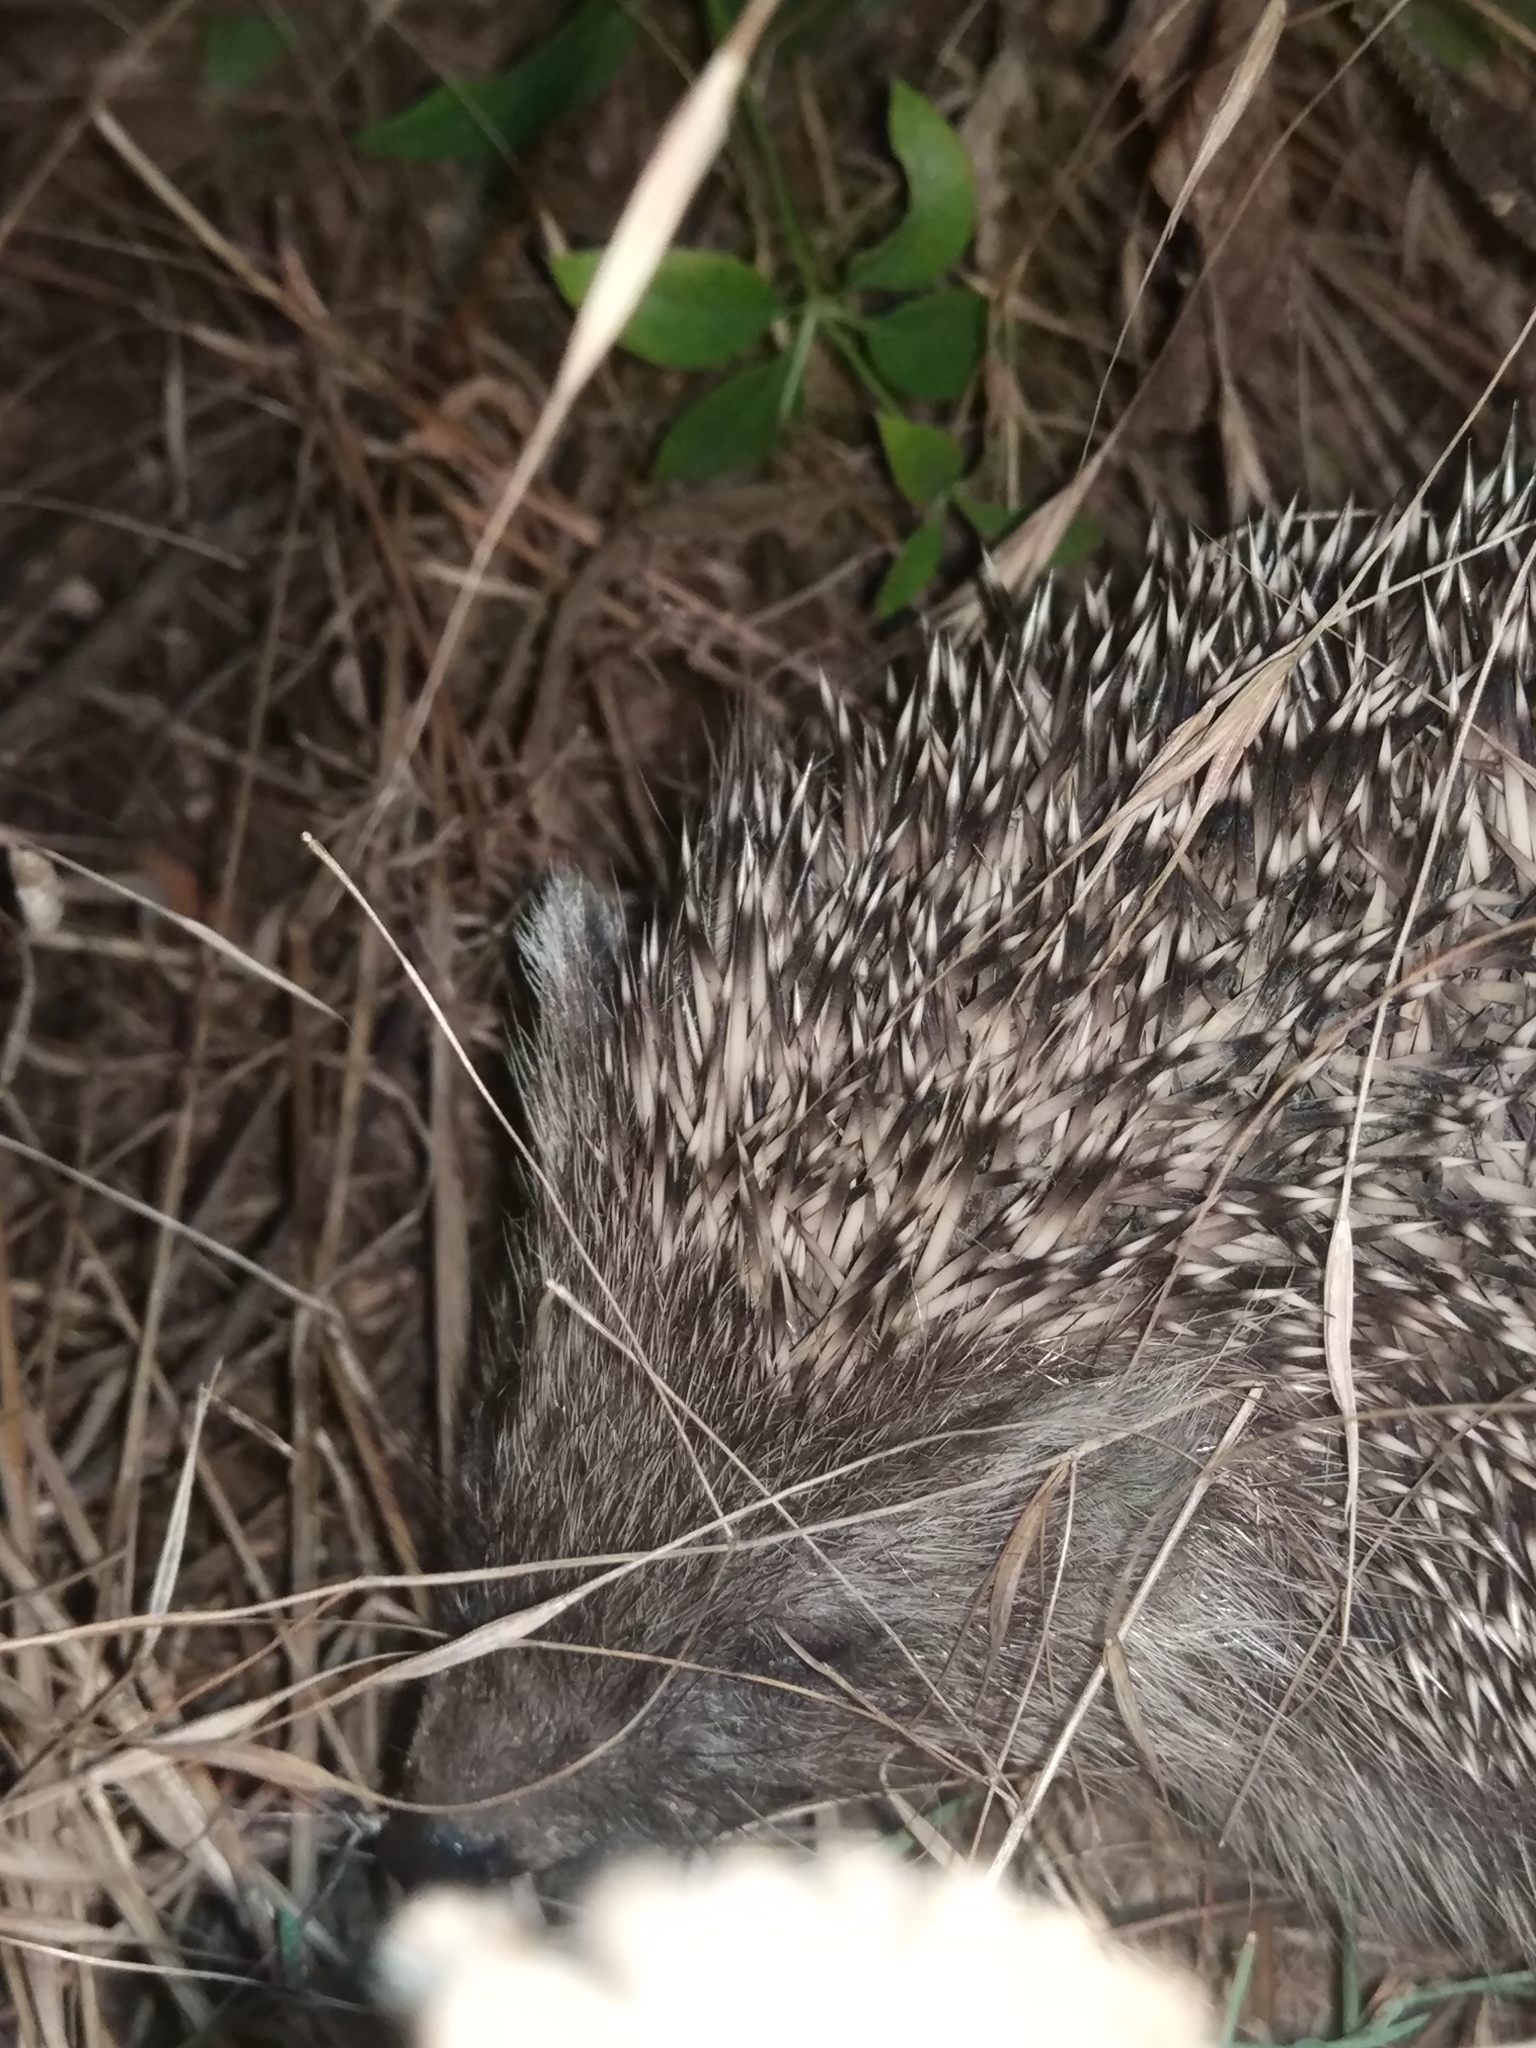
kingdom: Animalia
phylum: Chordata
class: Mammalia
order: Erinaceomorpha
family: Erinaceidae
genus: Erinaceus
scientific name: Erinaceus concolor
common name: Southern white-breasted hedgehog
